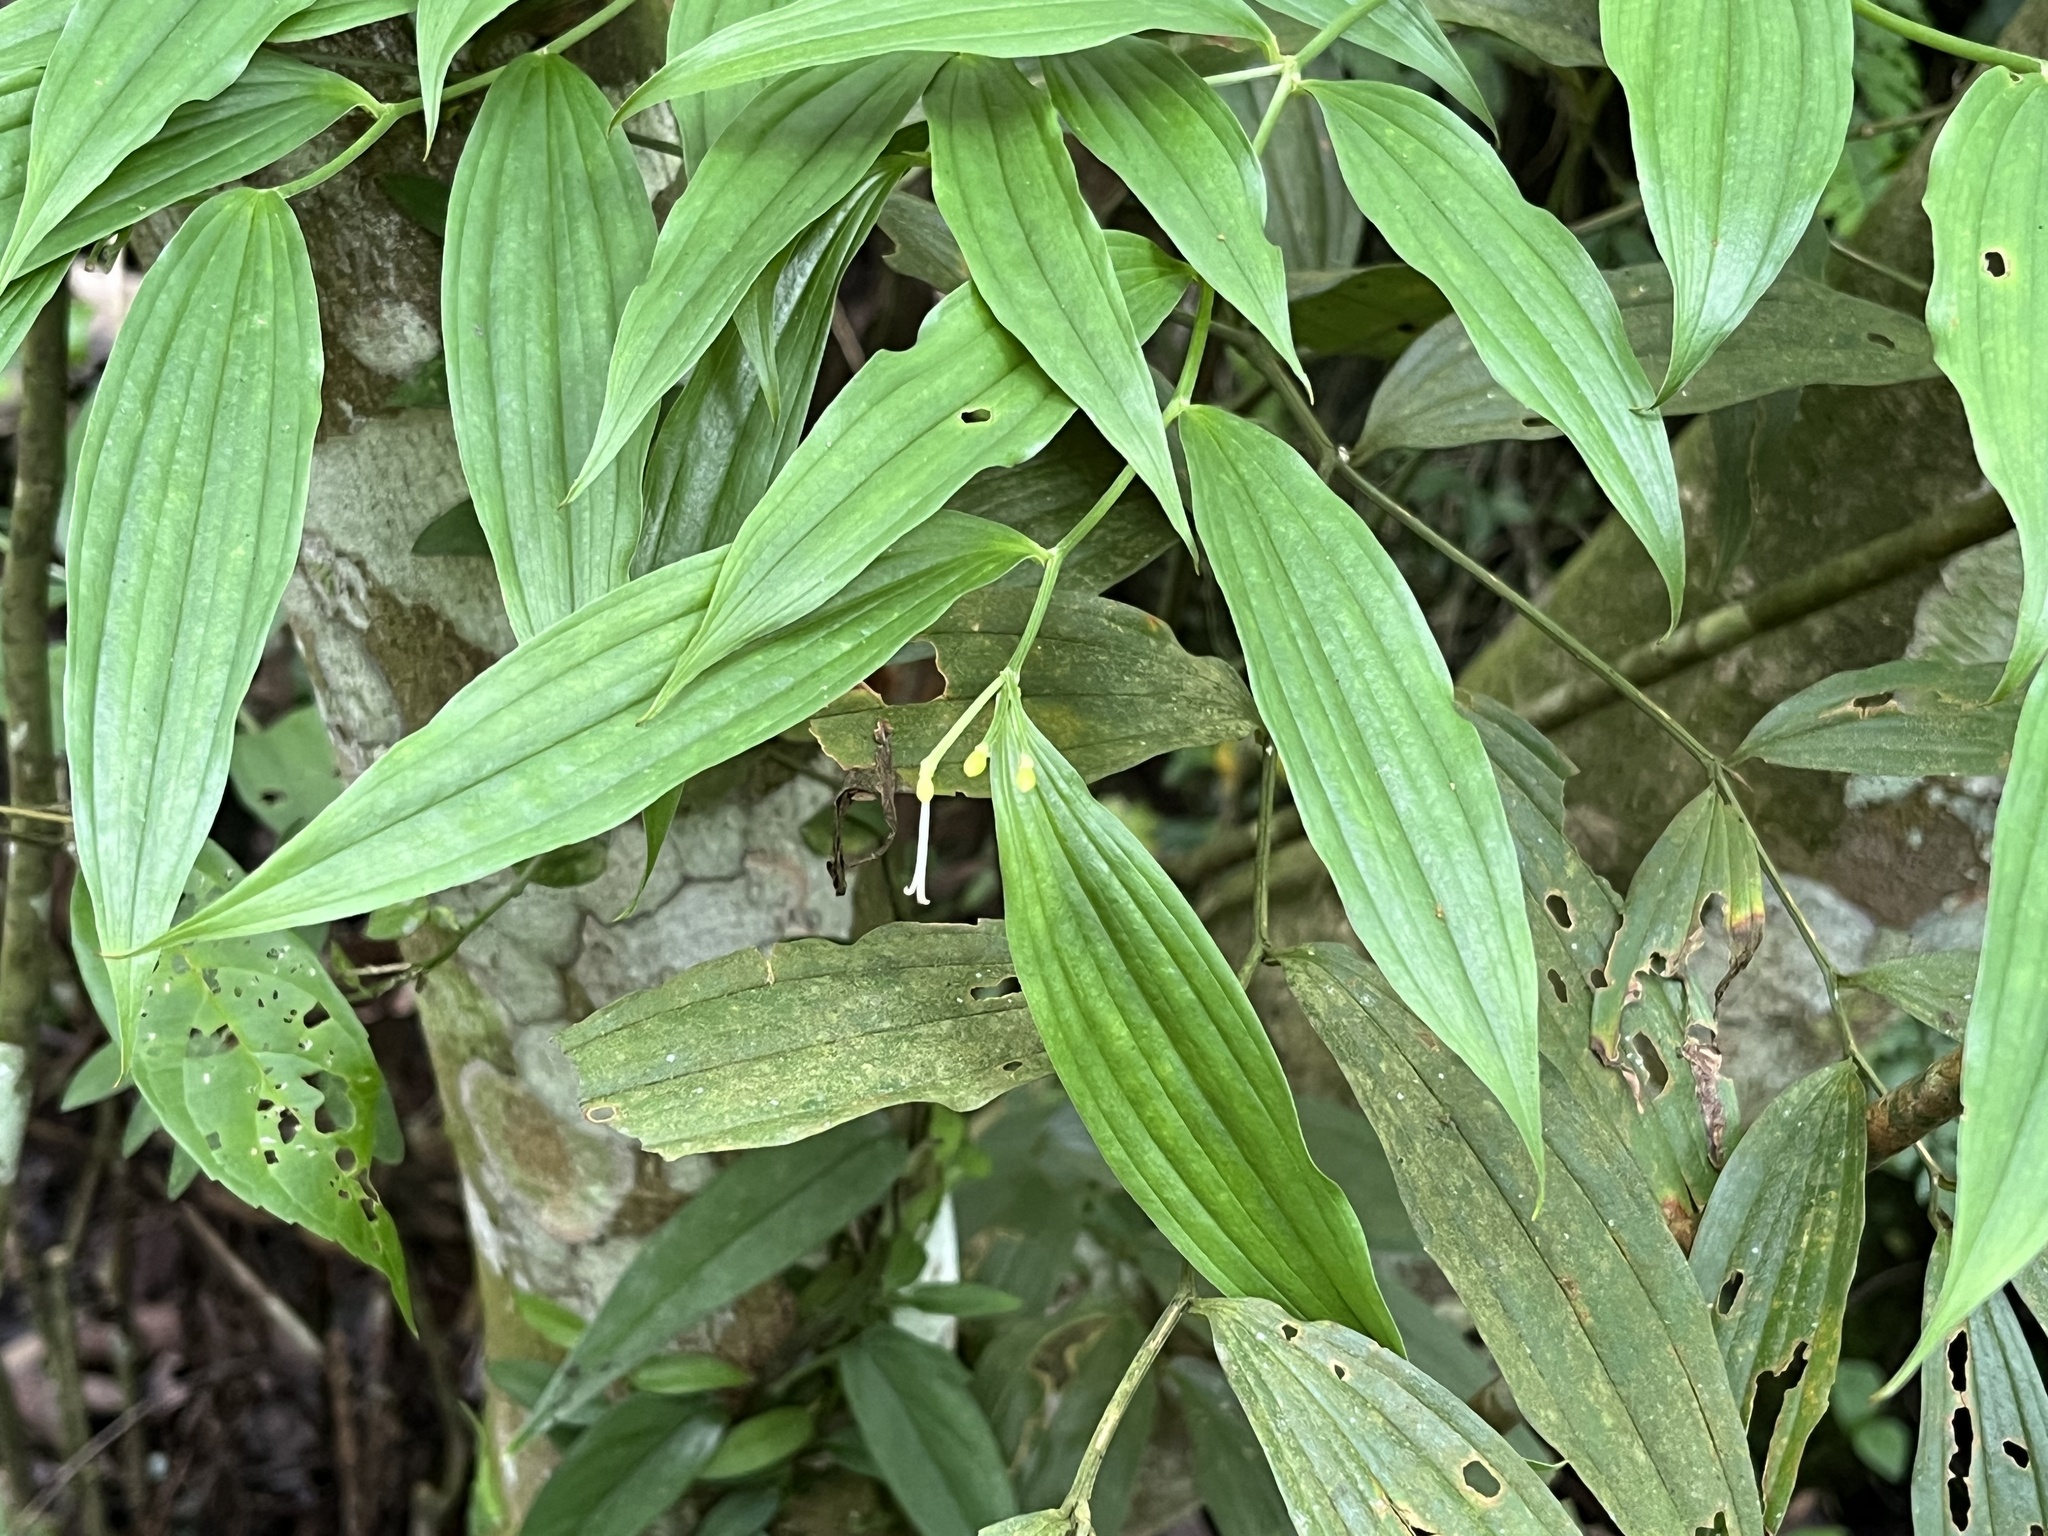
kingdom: Plantae
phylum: Tracheophyta
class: Liliopsida
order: Liliales
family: Colchicaceae
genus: Disporum
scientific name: Disporum kawakamii
